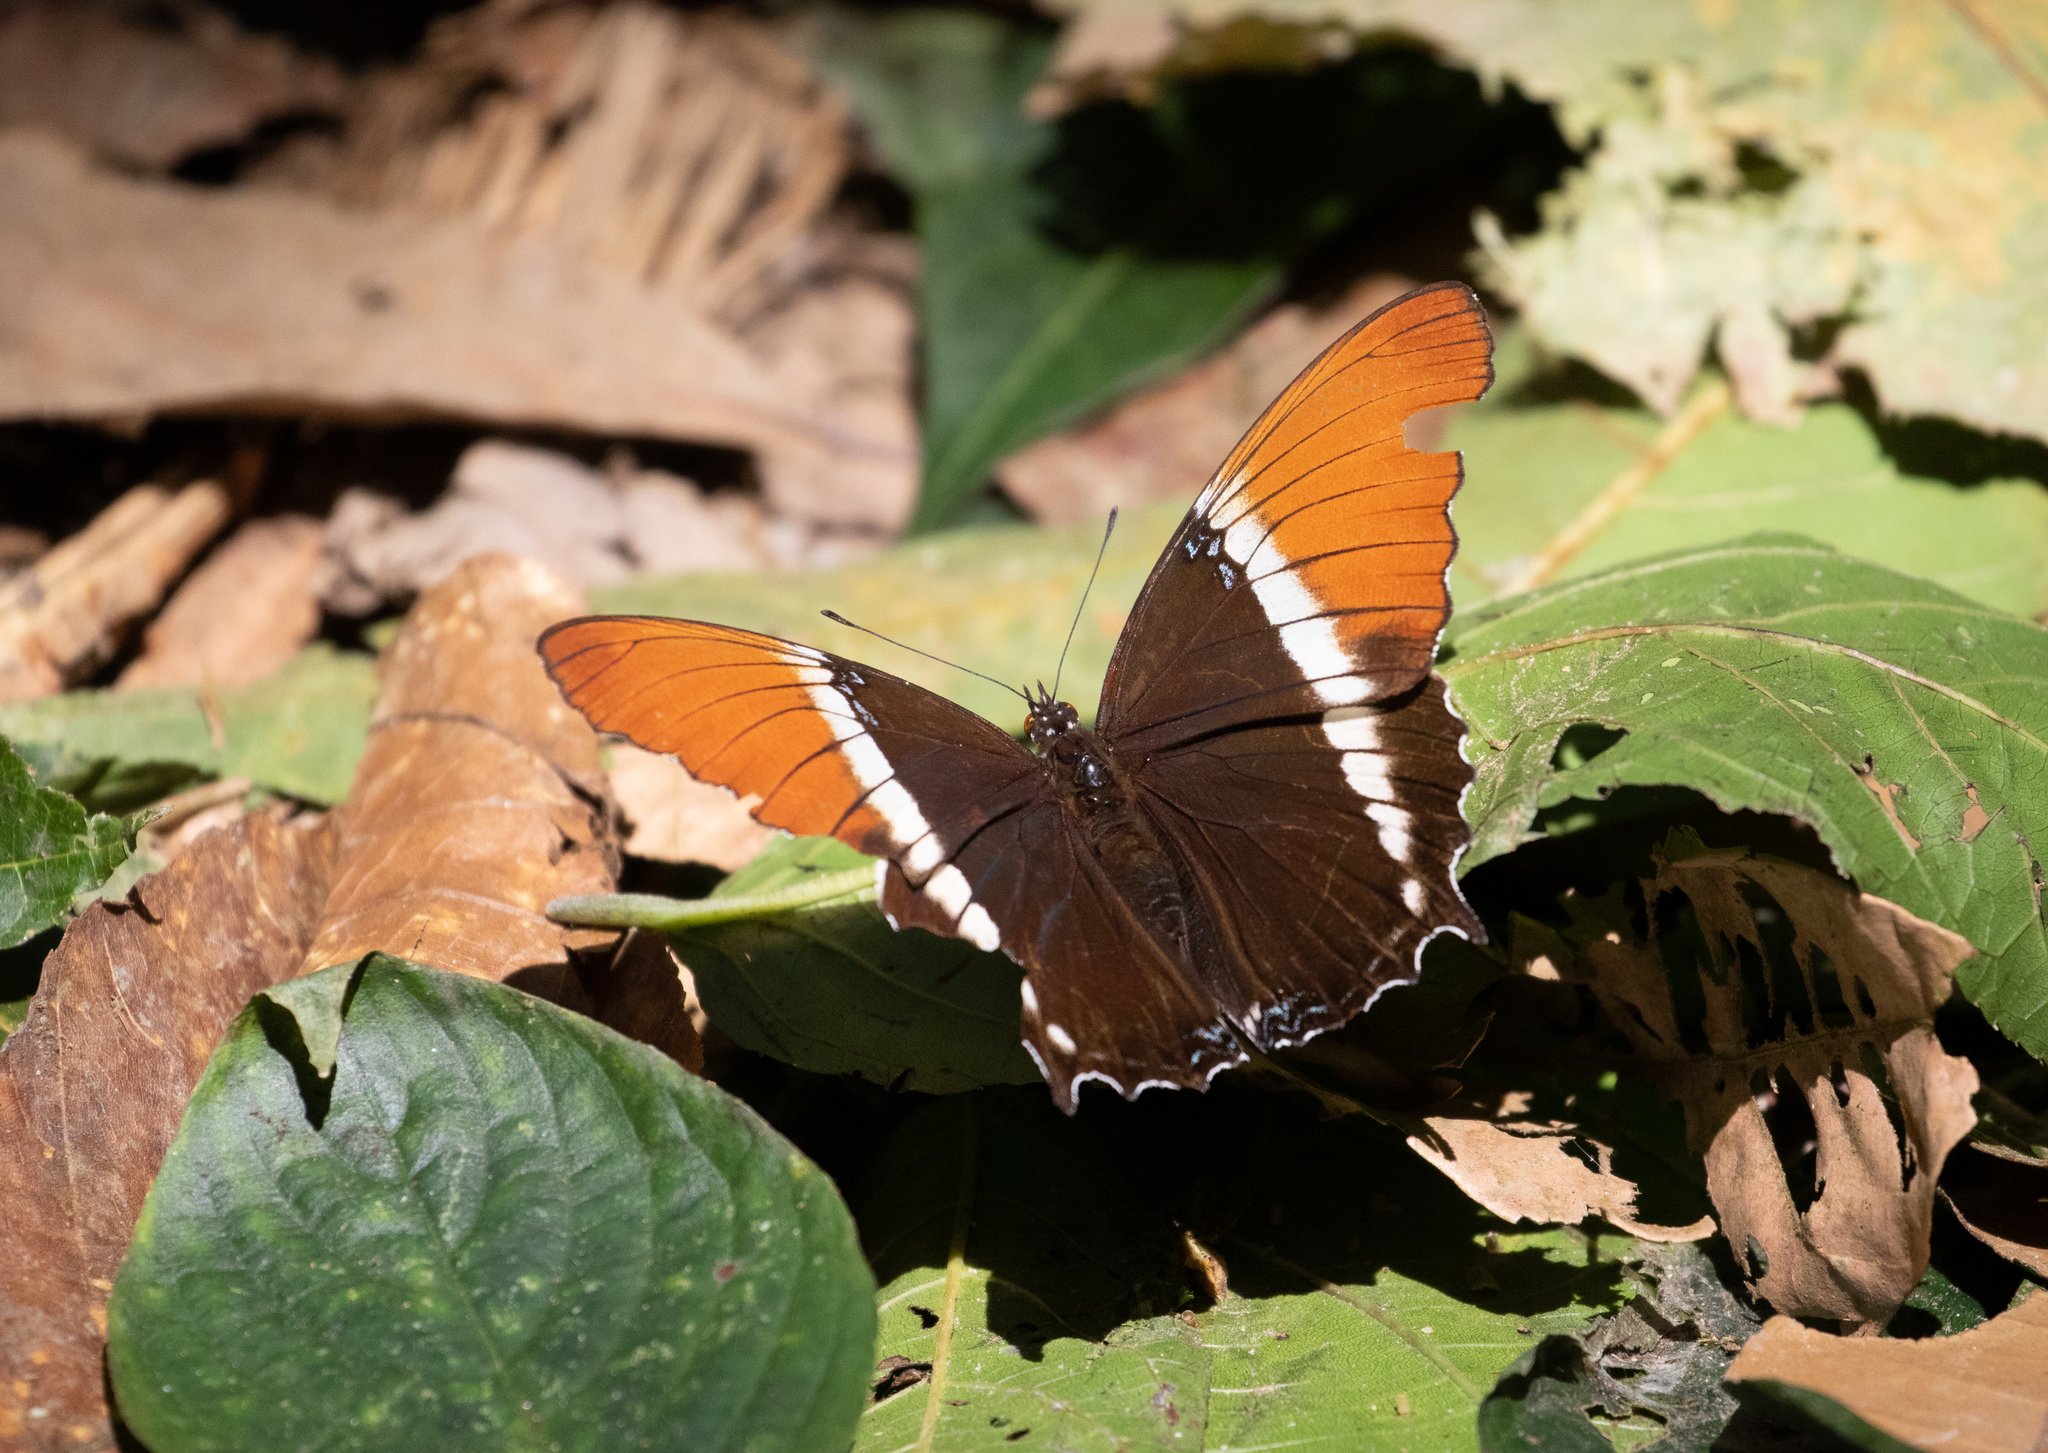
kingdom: Animalia
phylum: Arthropoda
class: Insecta
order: Lepidoptera
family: Nymphalidae
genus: Siproeta
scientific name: Siproeta epaphus
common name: Rusty-tipped page
